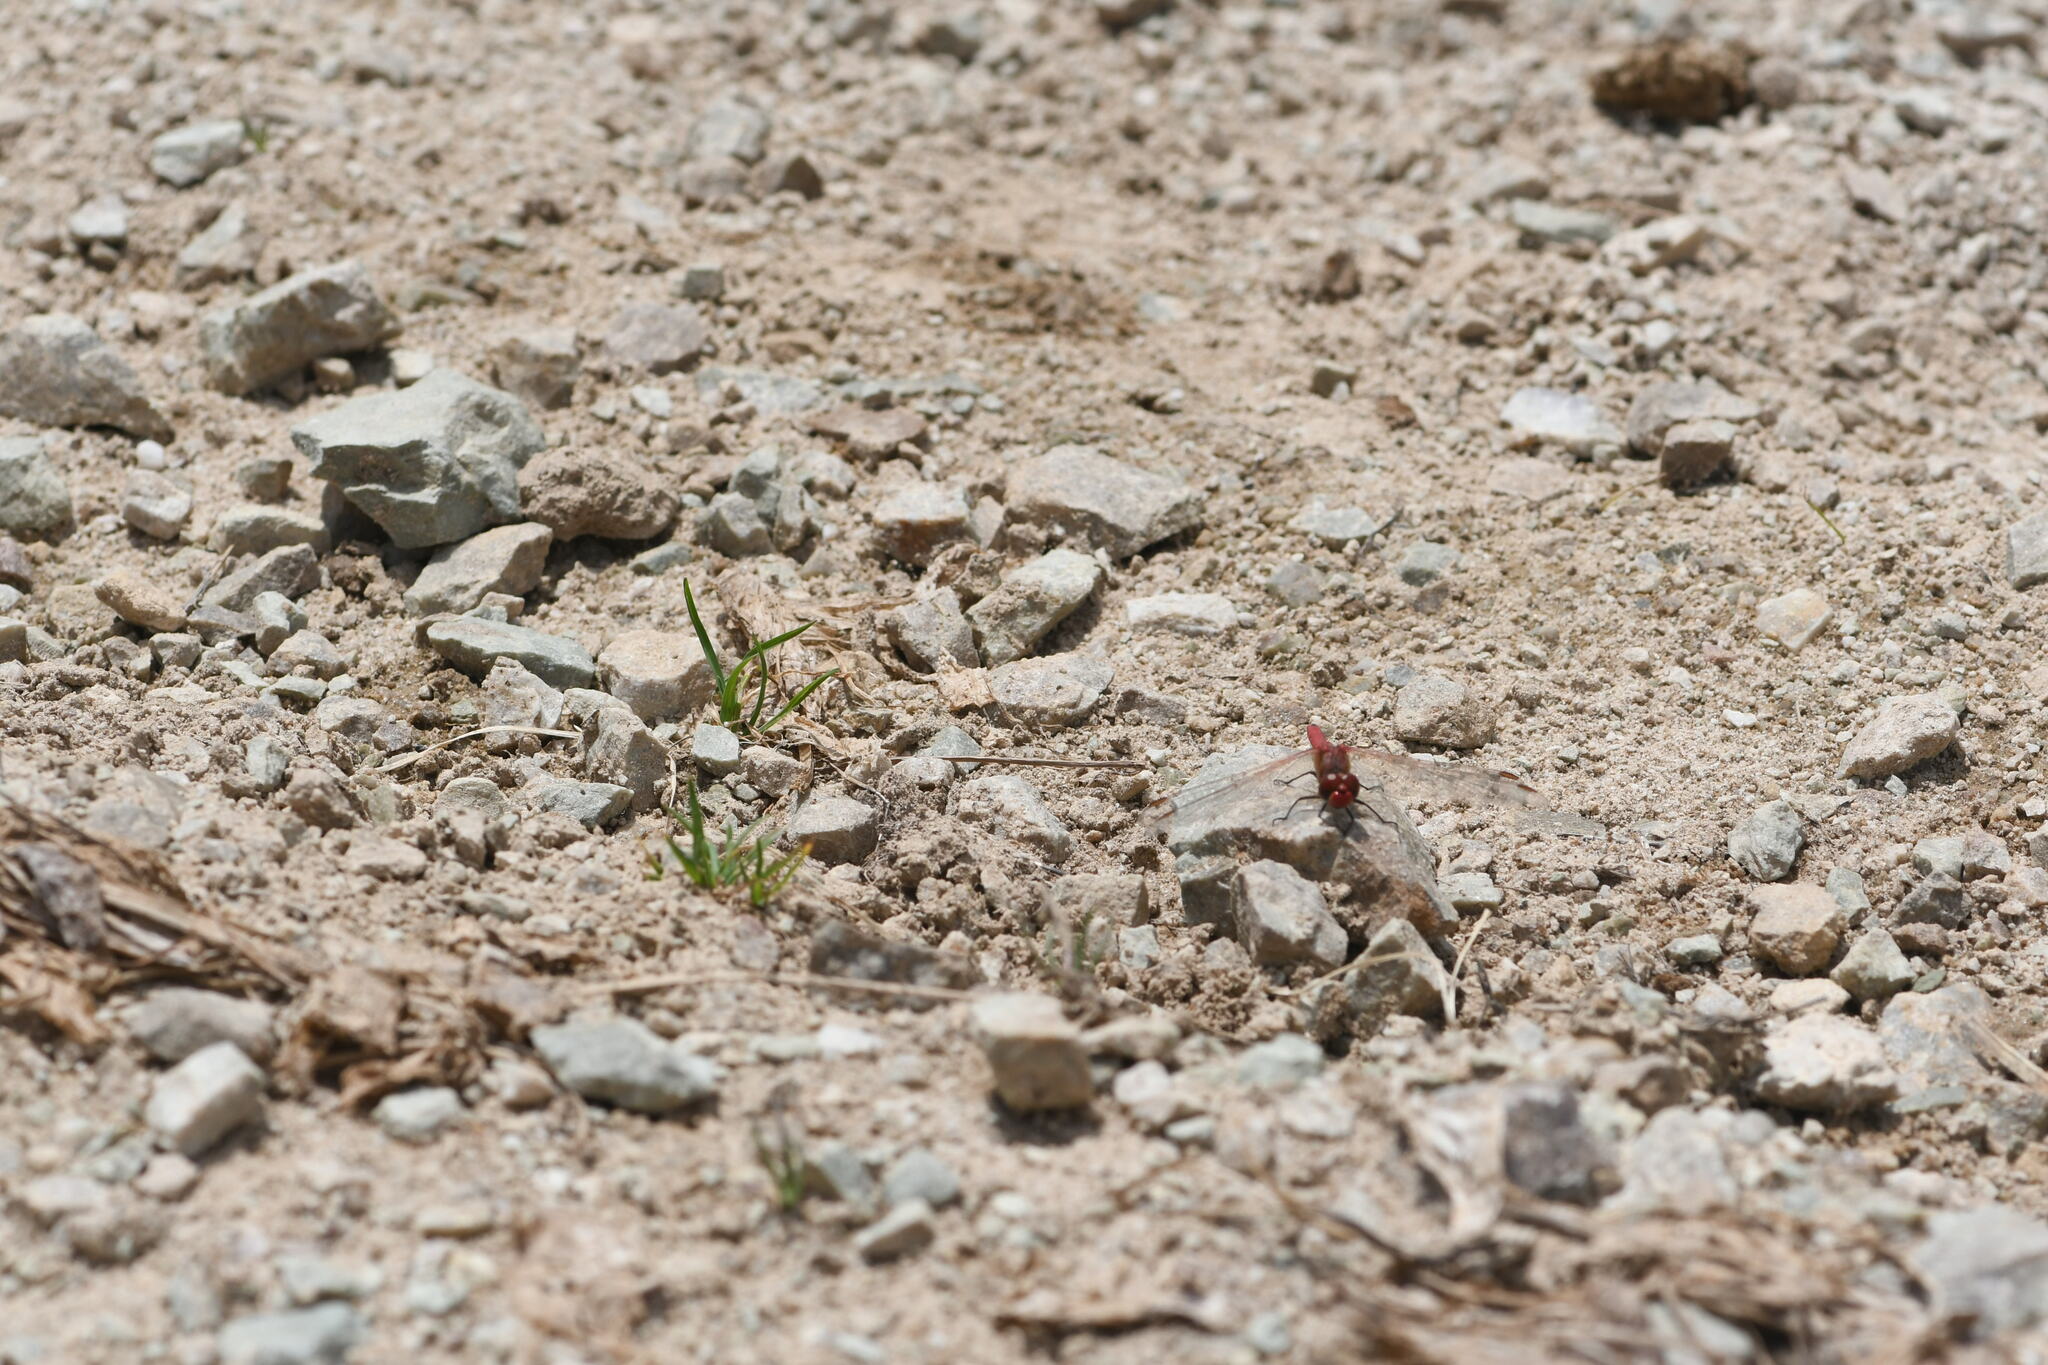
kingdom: Animalia
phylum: Arthropoda
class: Insecta
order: Odonata
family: Libellulidae
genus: Sympetrum
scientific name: Sympetrum fonscolombii
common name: Red-veined darter
